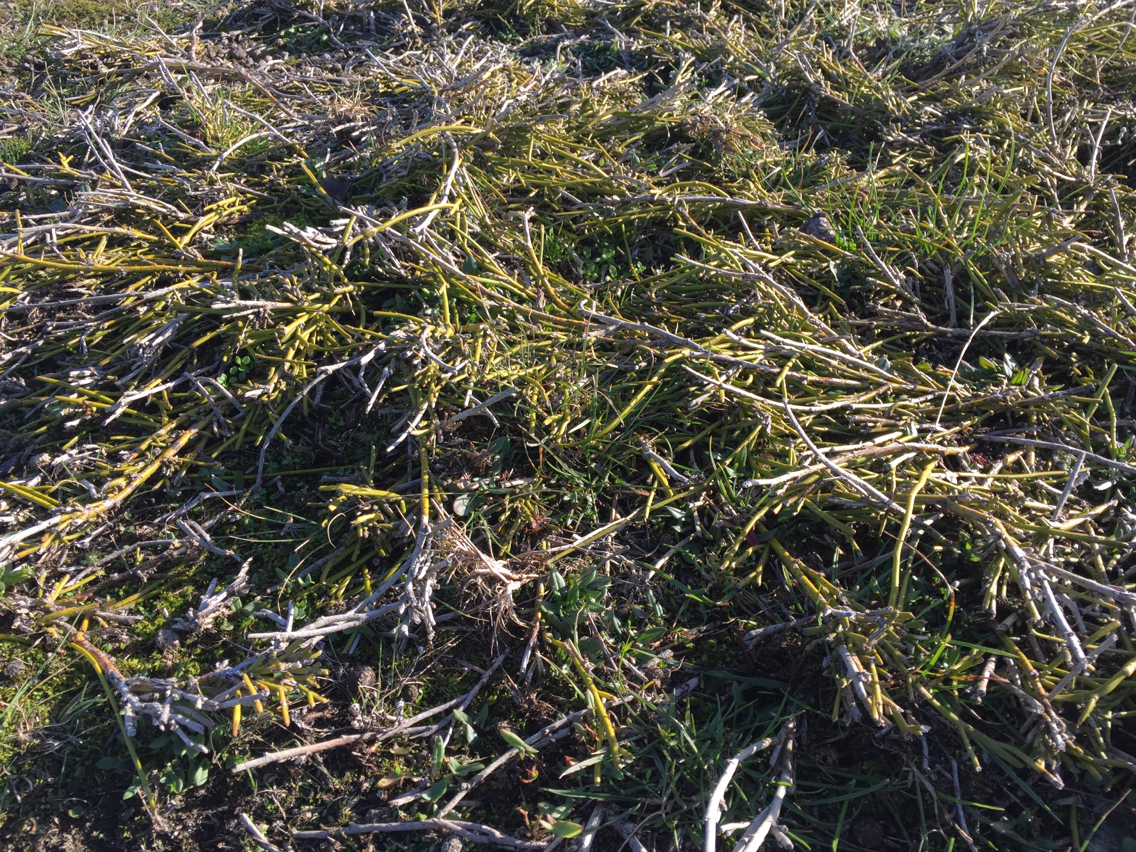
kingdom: Plantae
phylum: Tracheophyta
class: Magnoliopsida
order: Fabales
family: Fabaceae
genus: Carmichaelia
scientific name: Carmichaelia appressa
